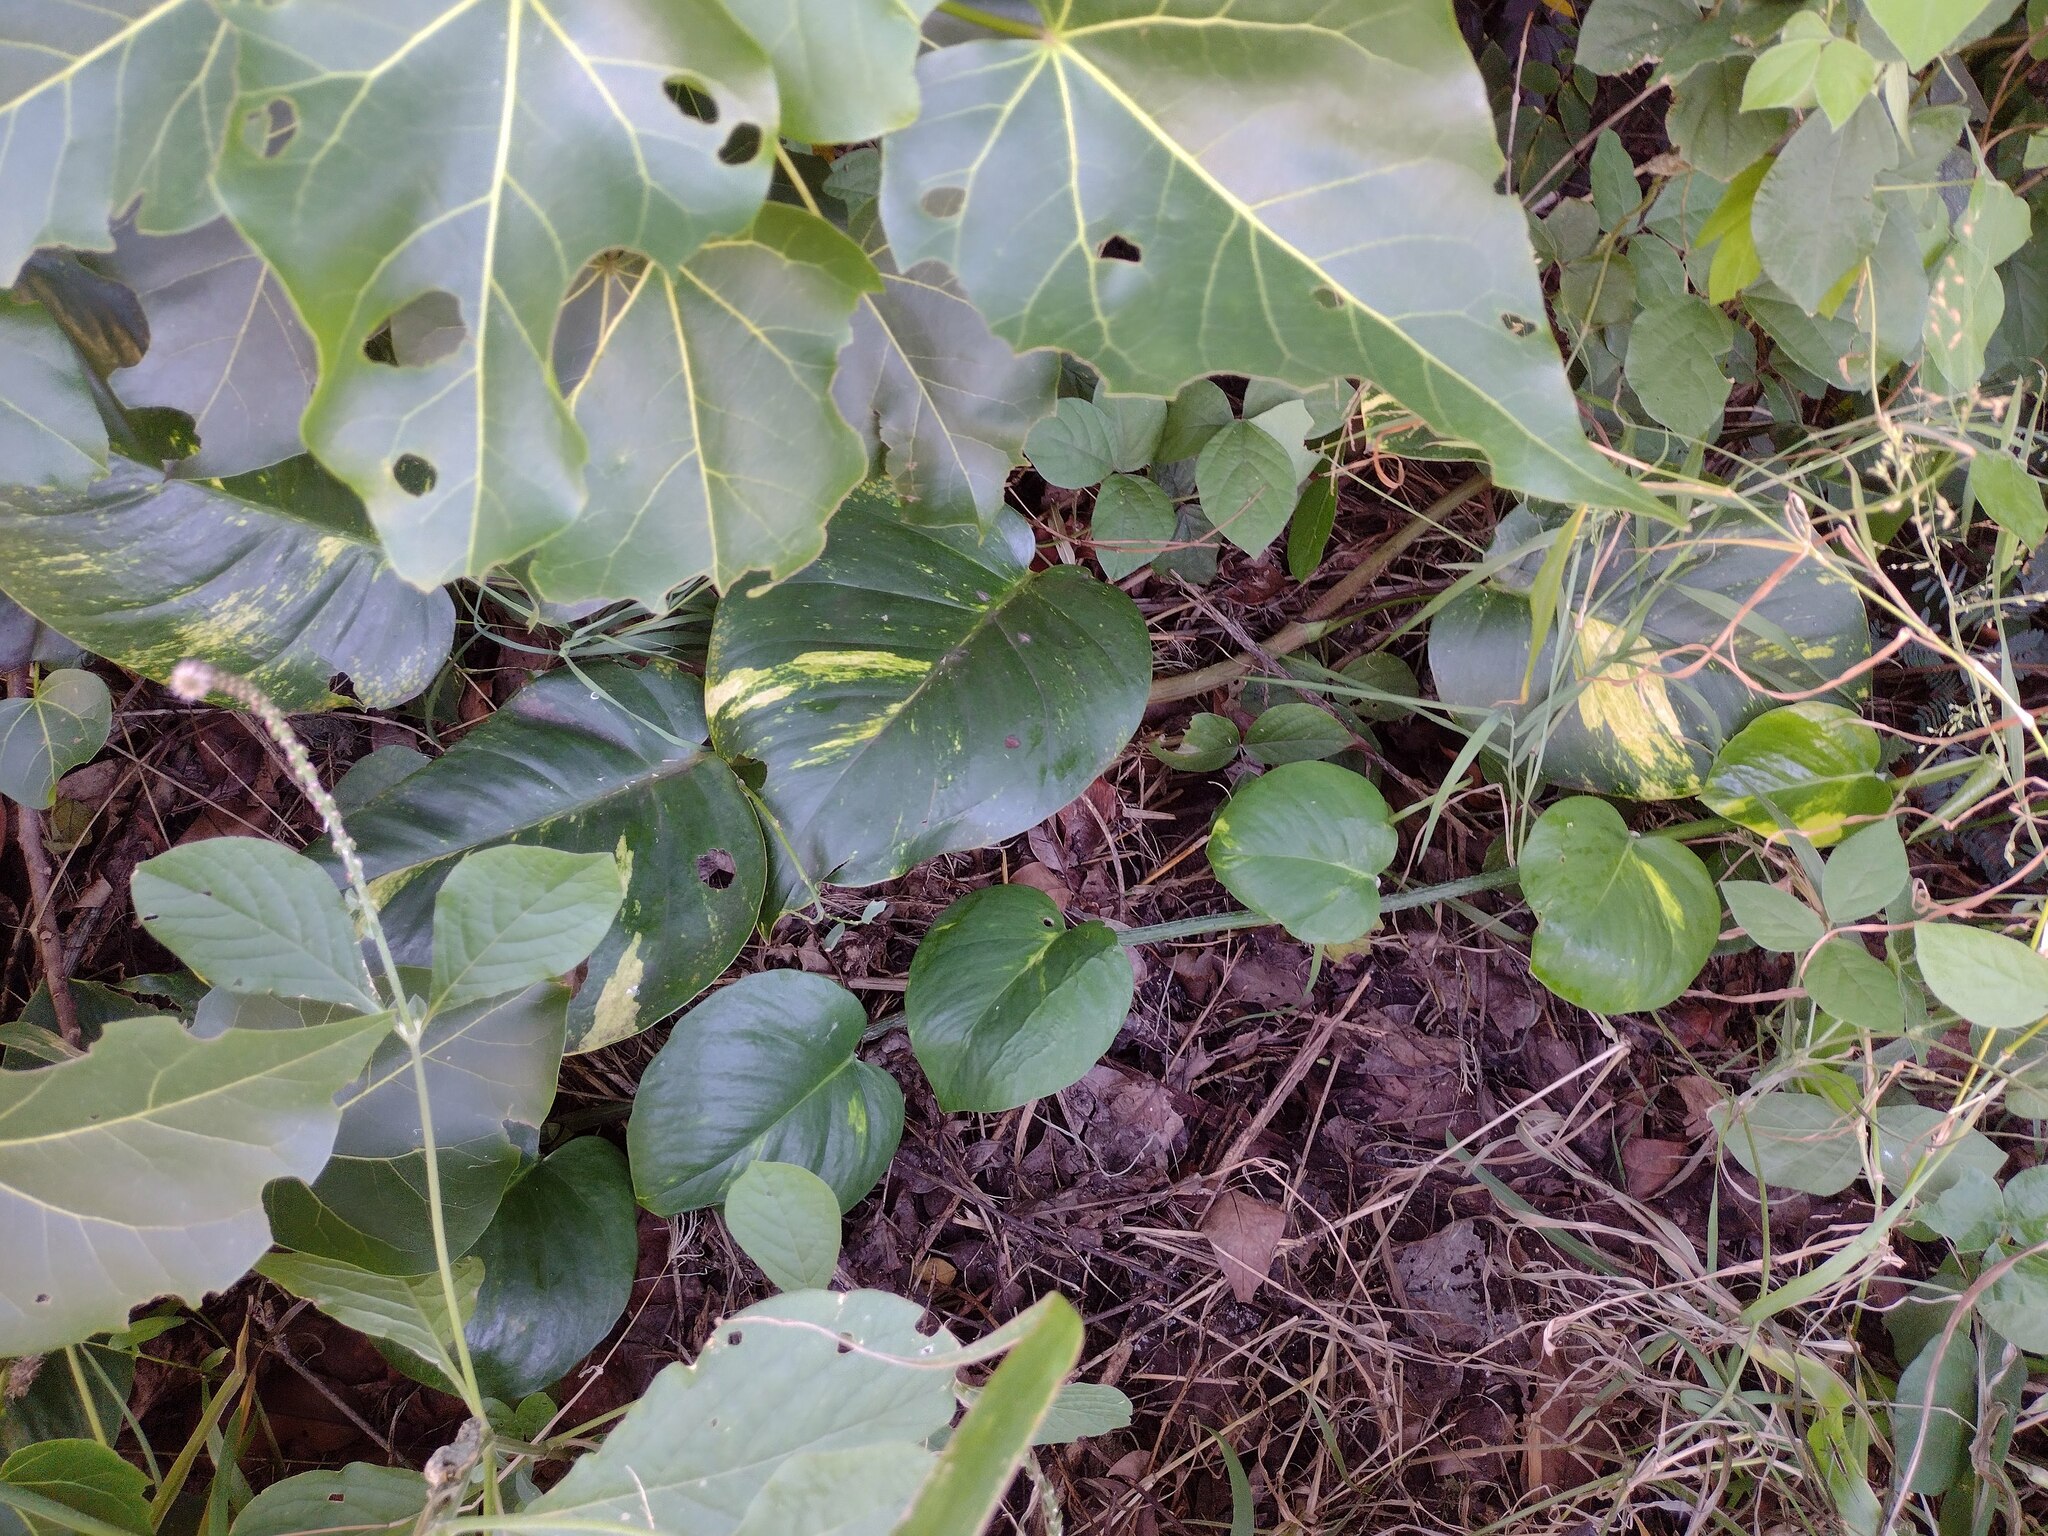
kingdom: Plantae
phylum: Tracheophyta
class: Liliopsida
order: Alismatales
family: Araceae
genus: Epipremnum
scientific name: Epipremnum aureum
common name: Golden hunter's-robe
